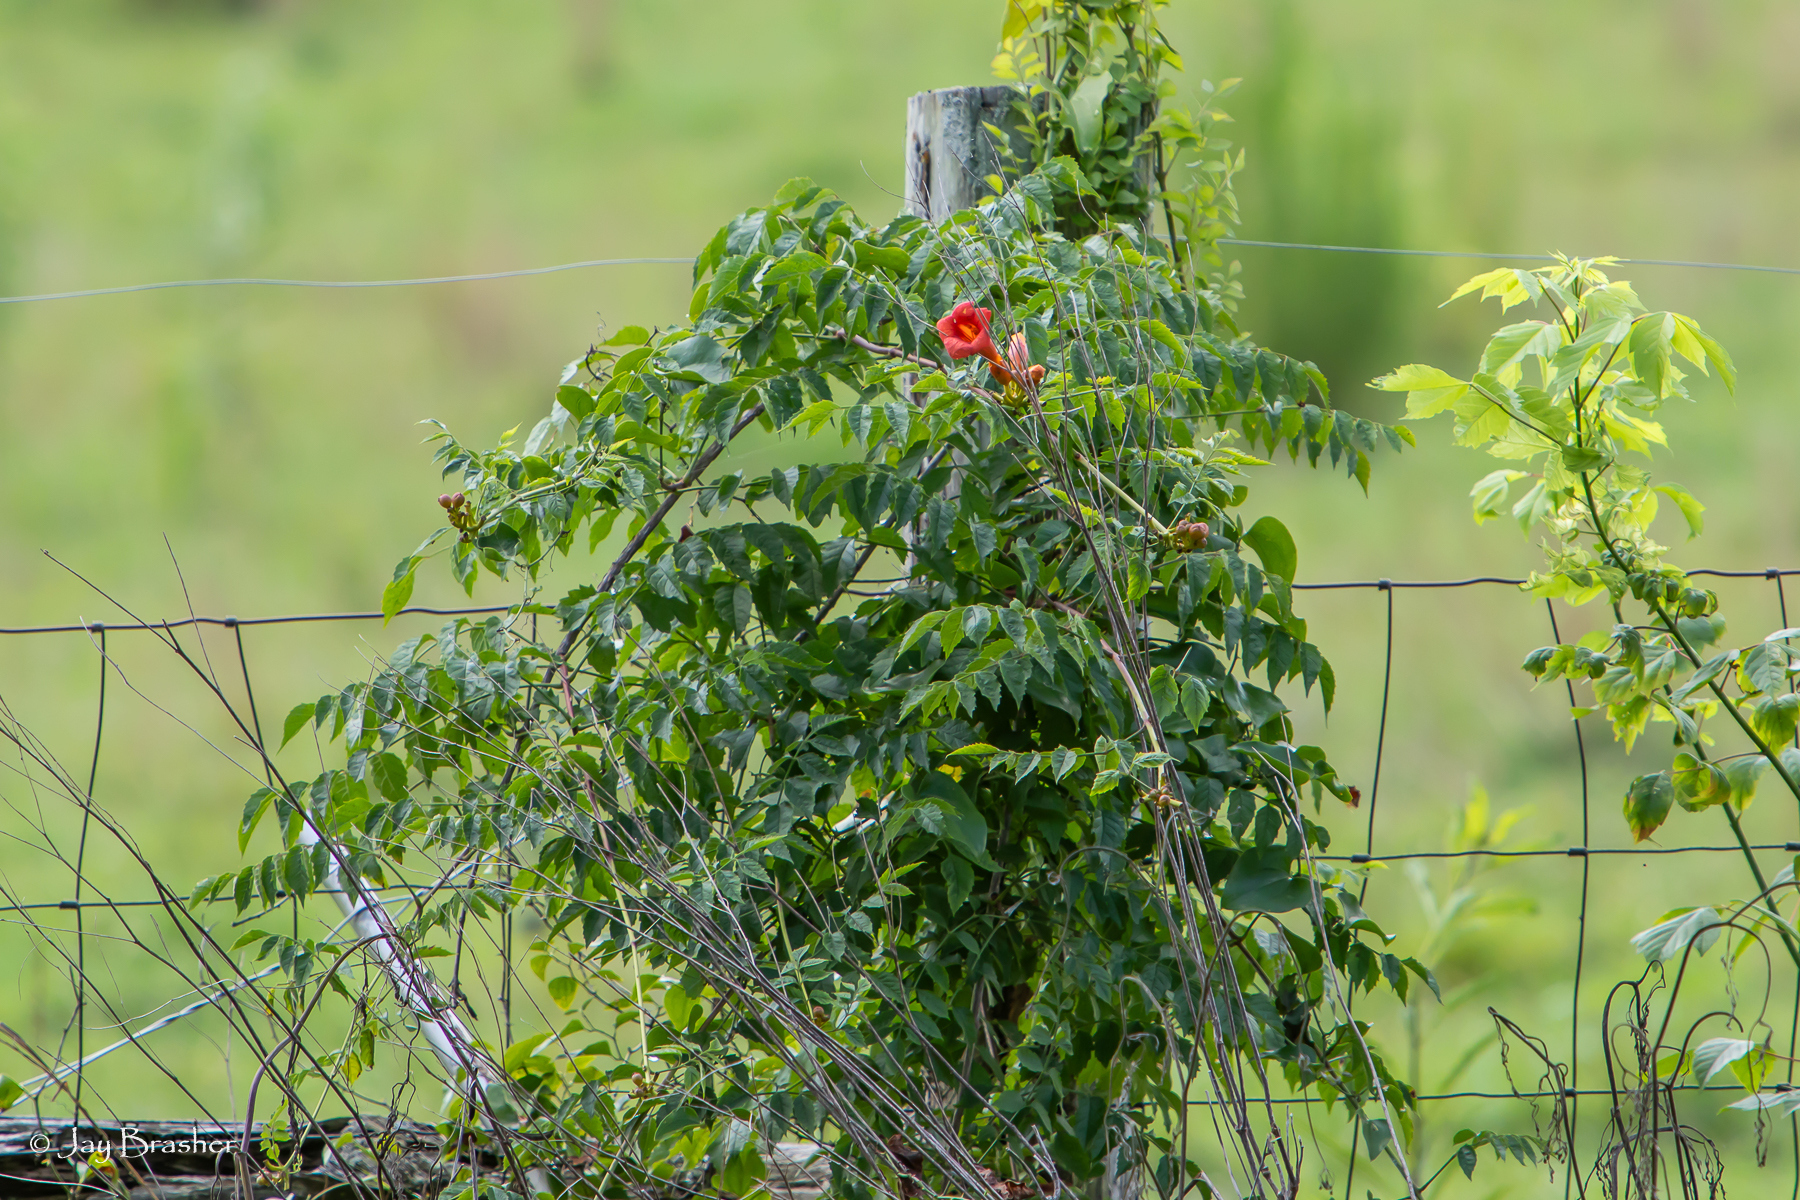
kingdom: Plantae
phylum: Tracheophyta
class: Magnoliopsida
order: Lamiales
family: Bignoniaceae
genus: Campsis
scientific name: Campsis radicans
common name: Trumpet-creeper
